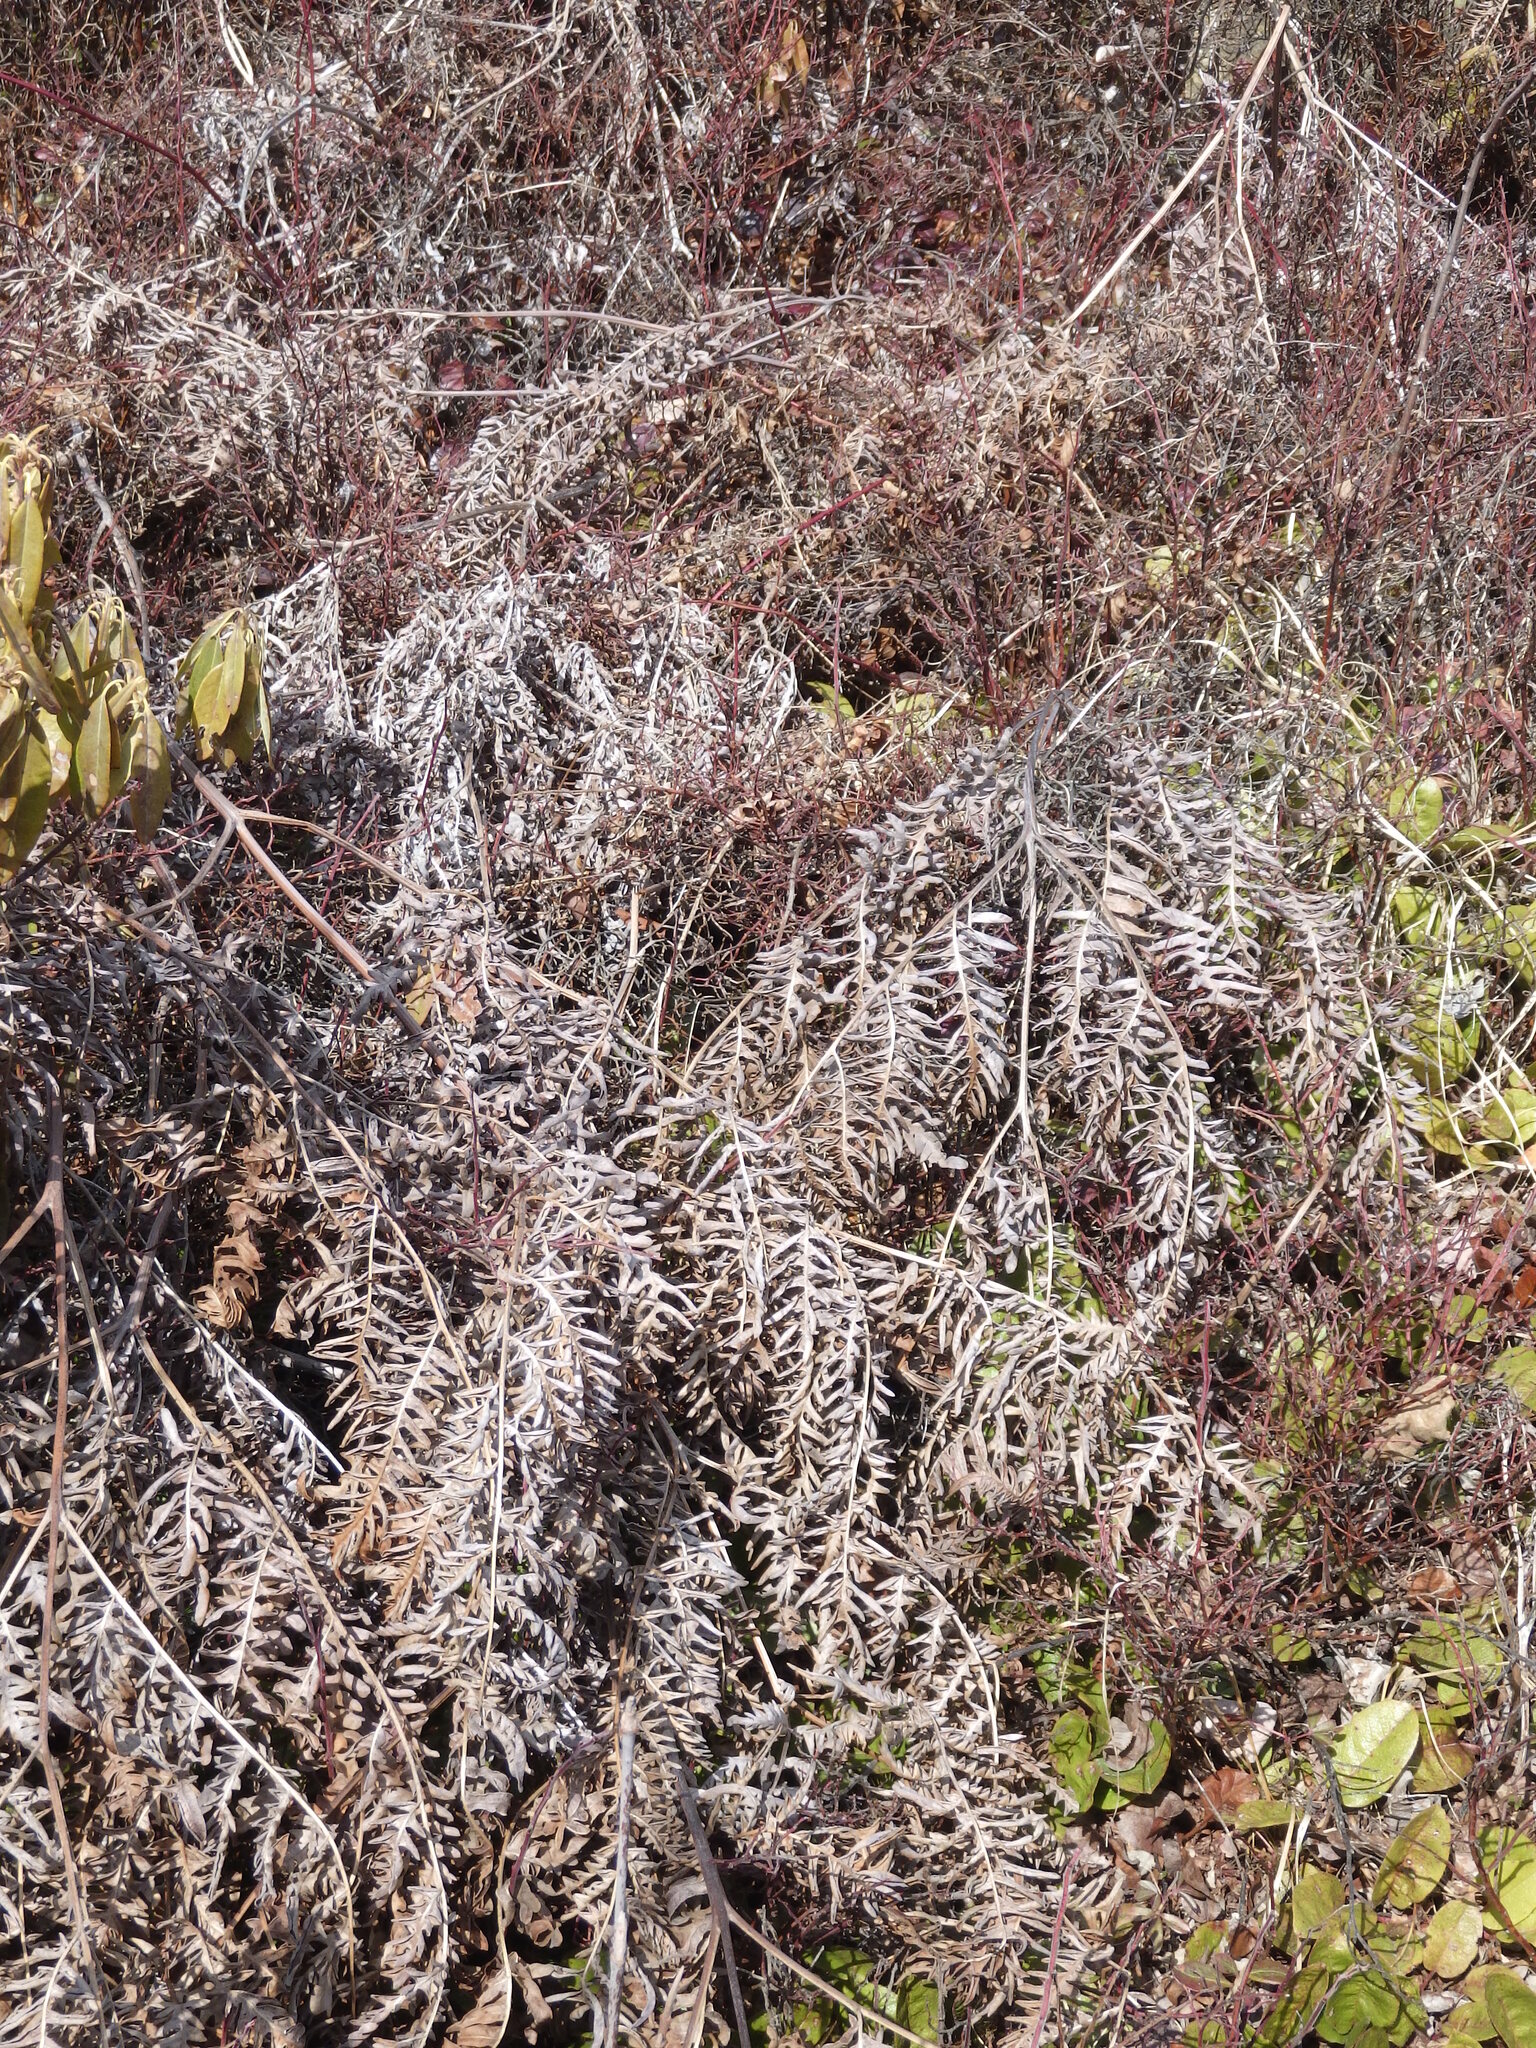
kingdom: Plantae
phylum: Tracheophyta
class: Polypodiopsida
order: Polypodiales
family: Dennstaedtiaceae
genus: Pteridium
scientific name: Pteridium aquilinum
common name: Bracken
